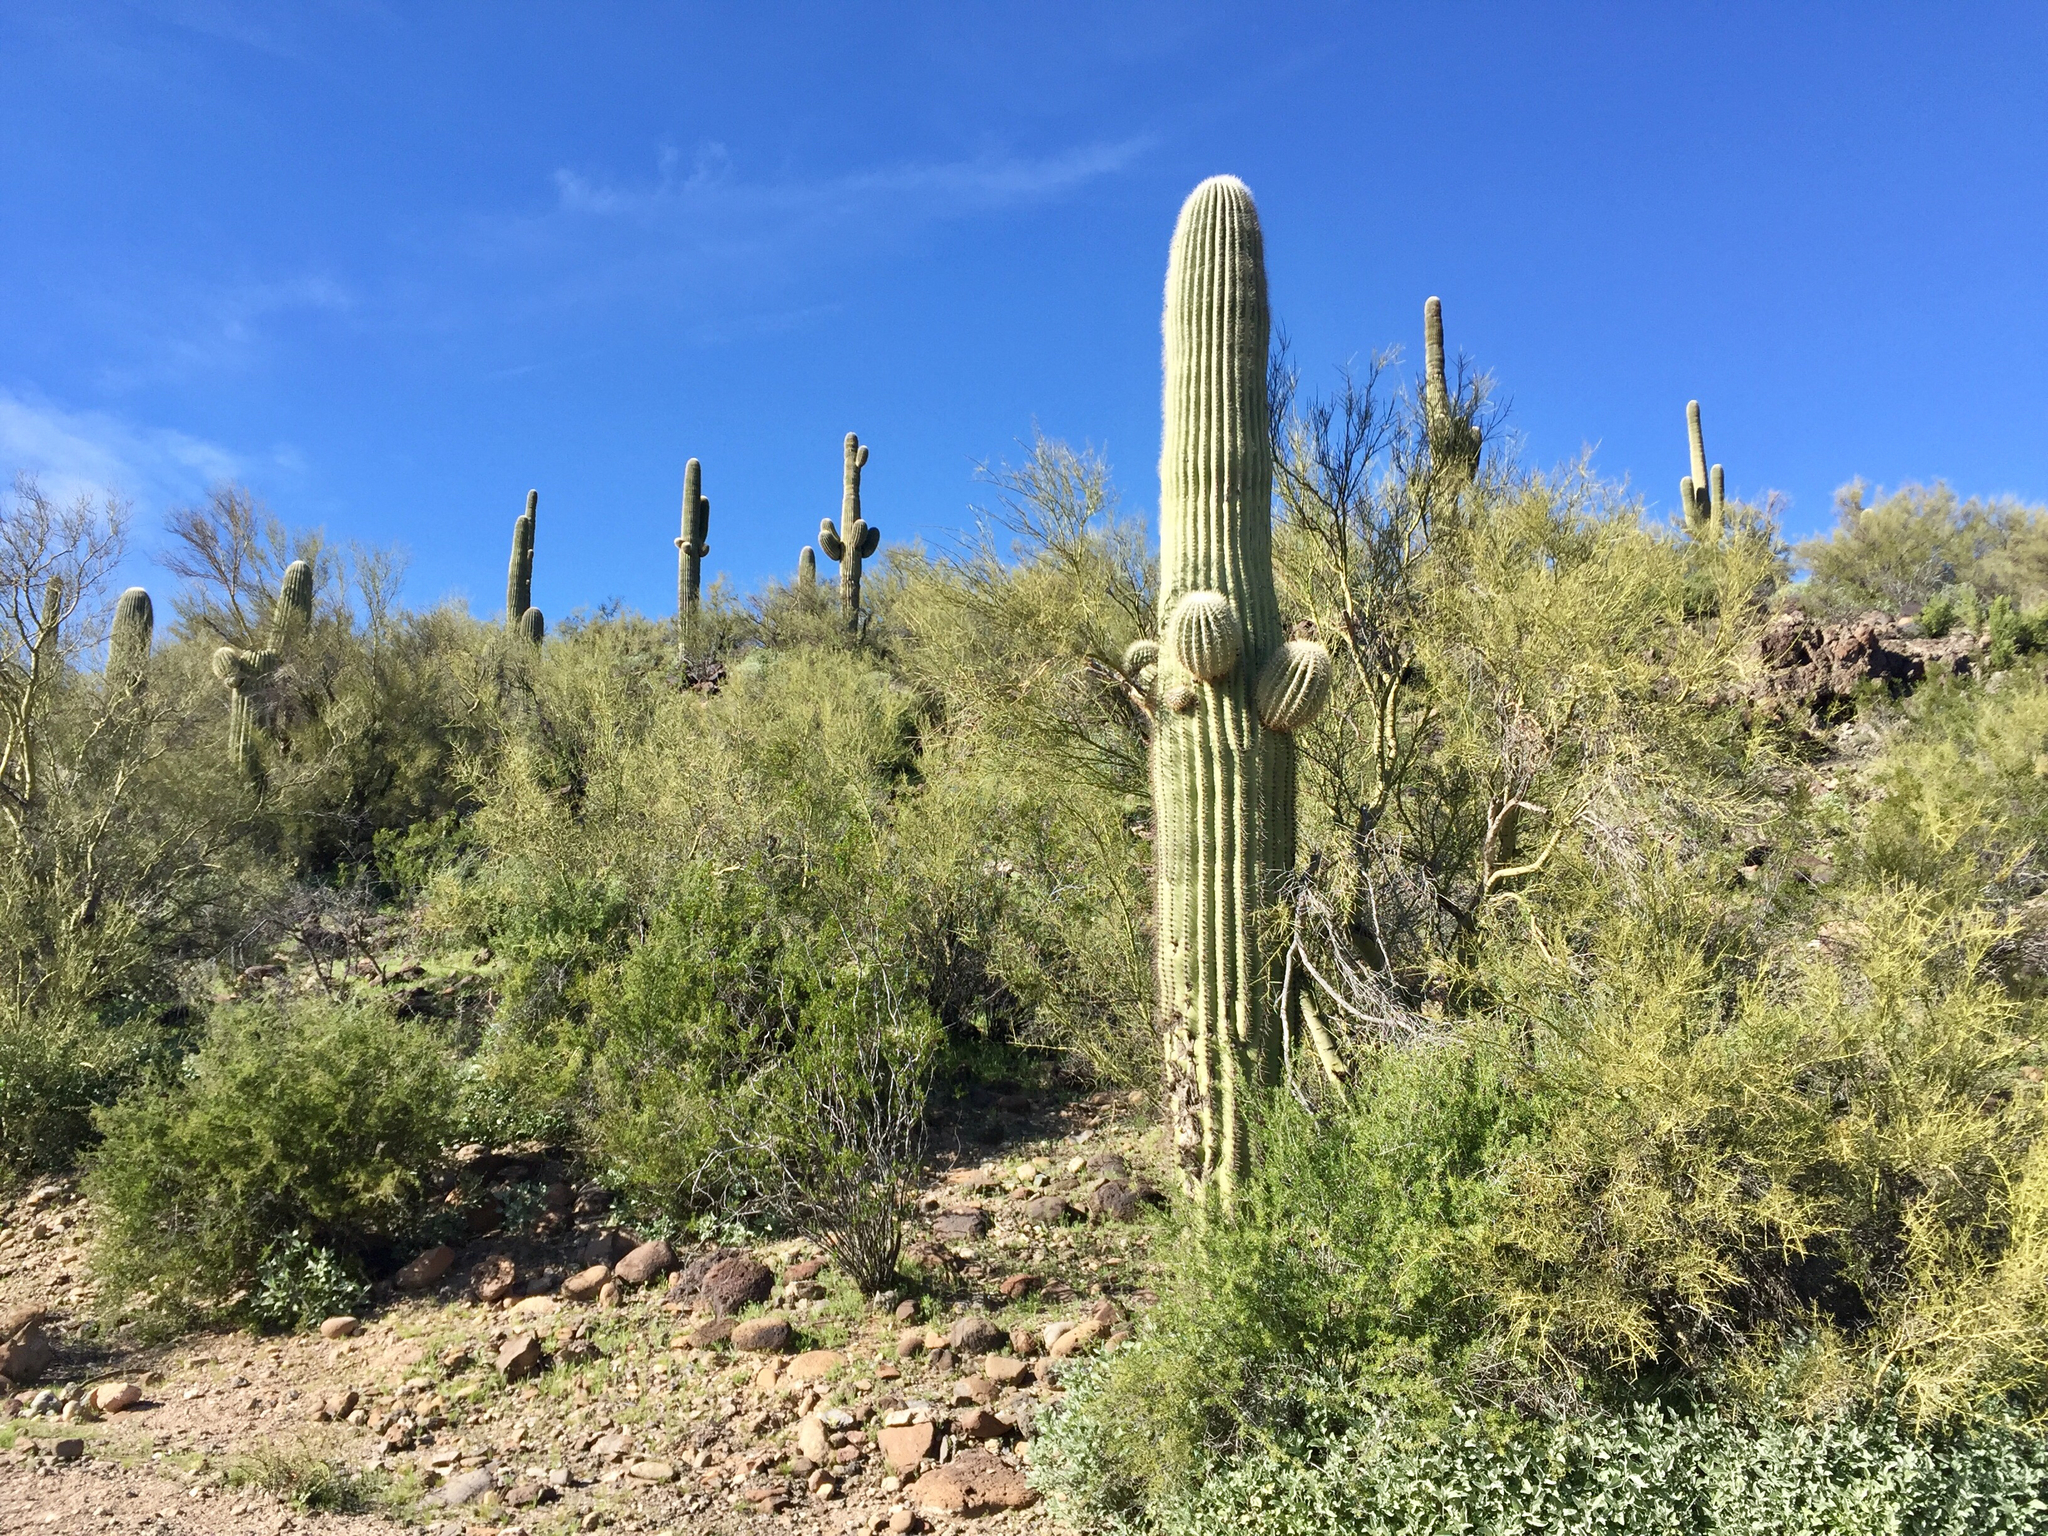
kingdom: Plantae
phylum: Tracheophyta
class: Magnoliopsida
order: Caryophyllales
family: Cactaceae
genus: Carnegiea
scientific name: Carnegiea gigantea
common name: Saguaro
